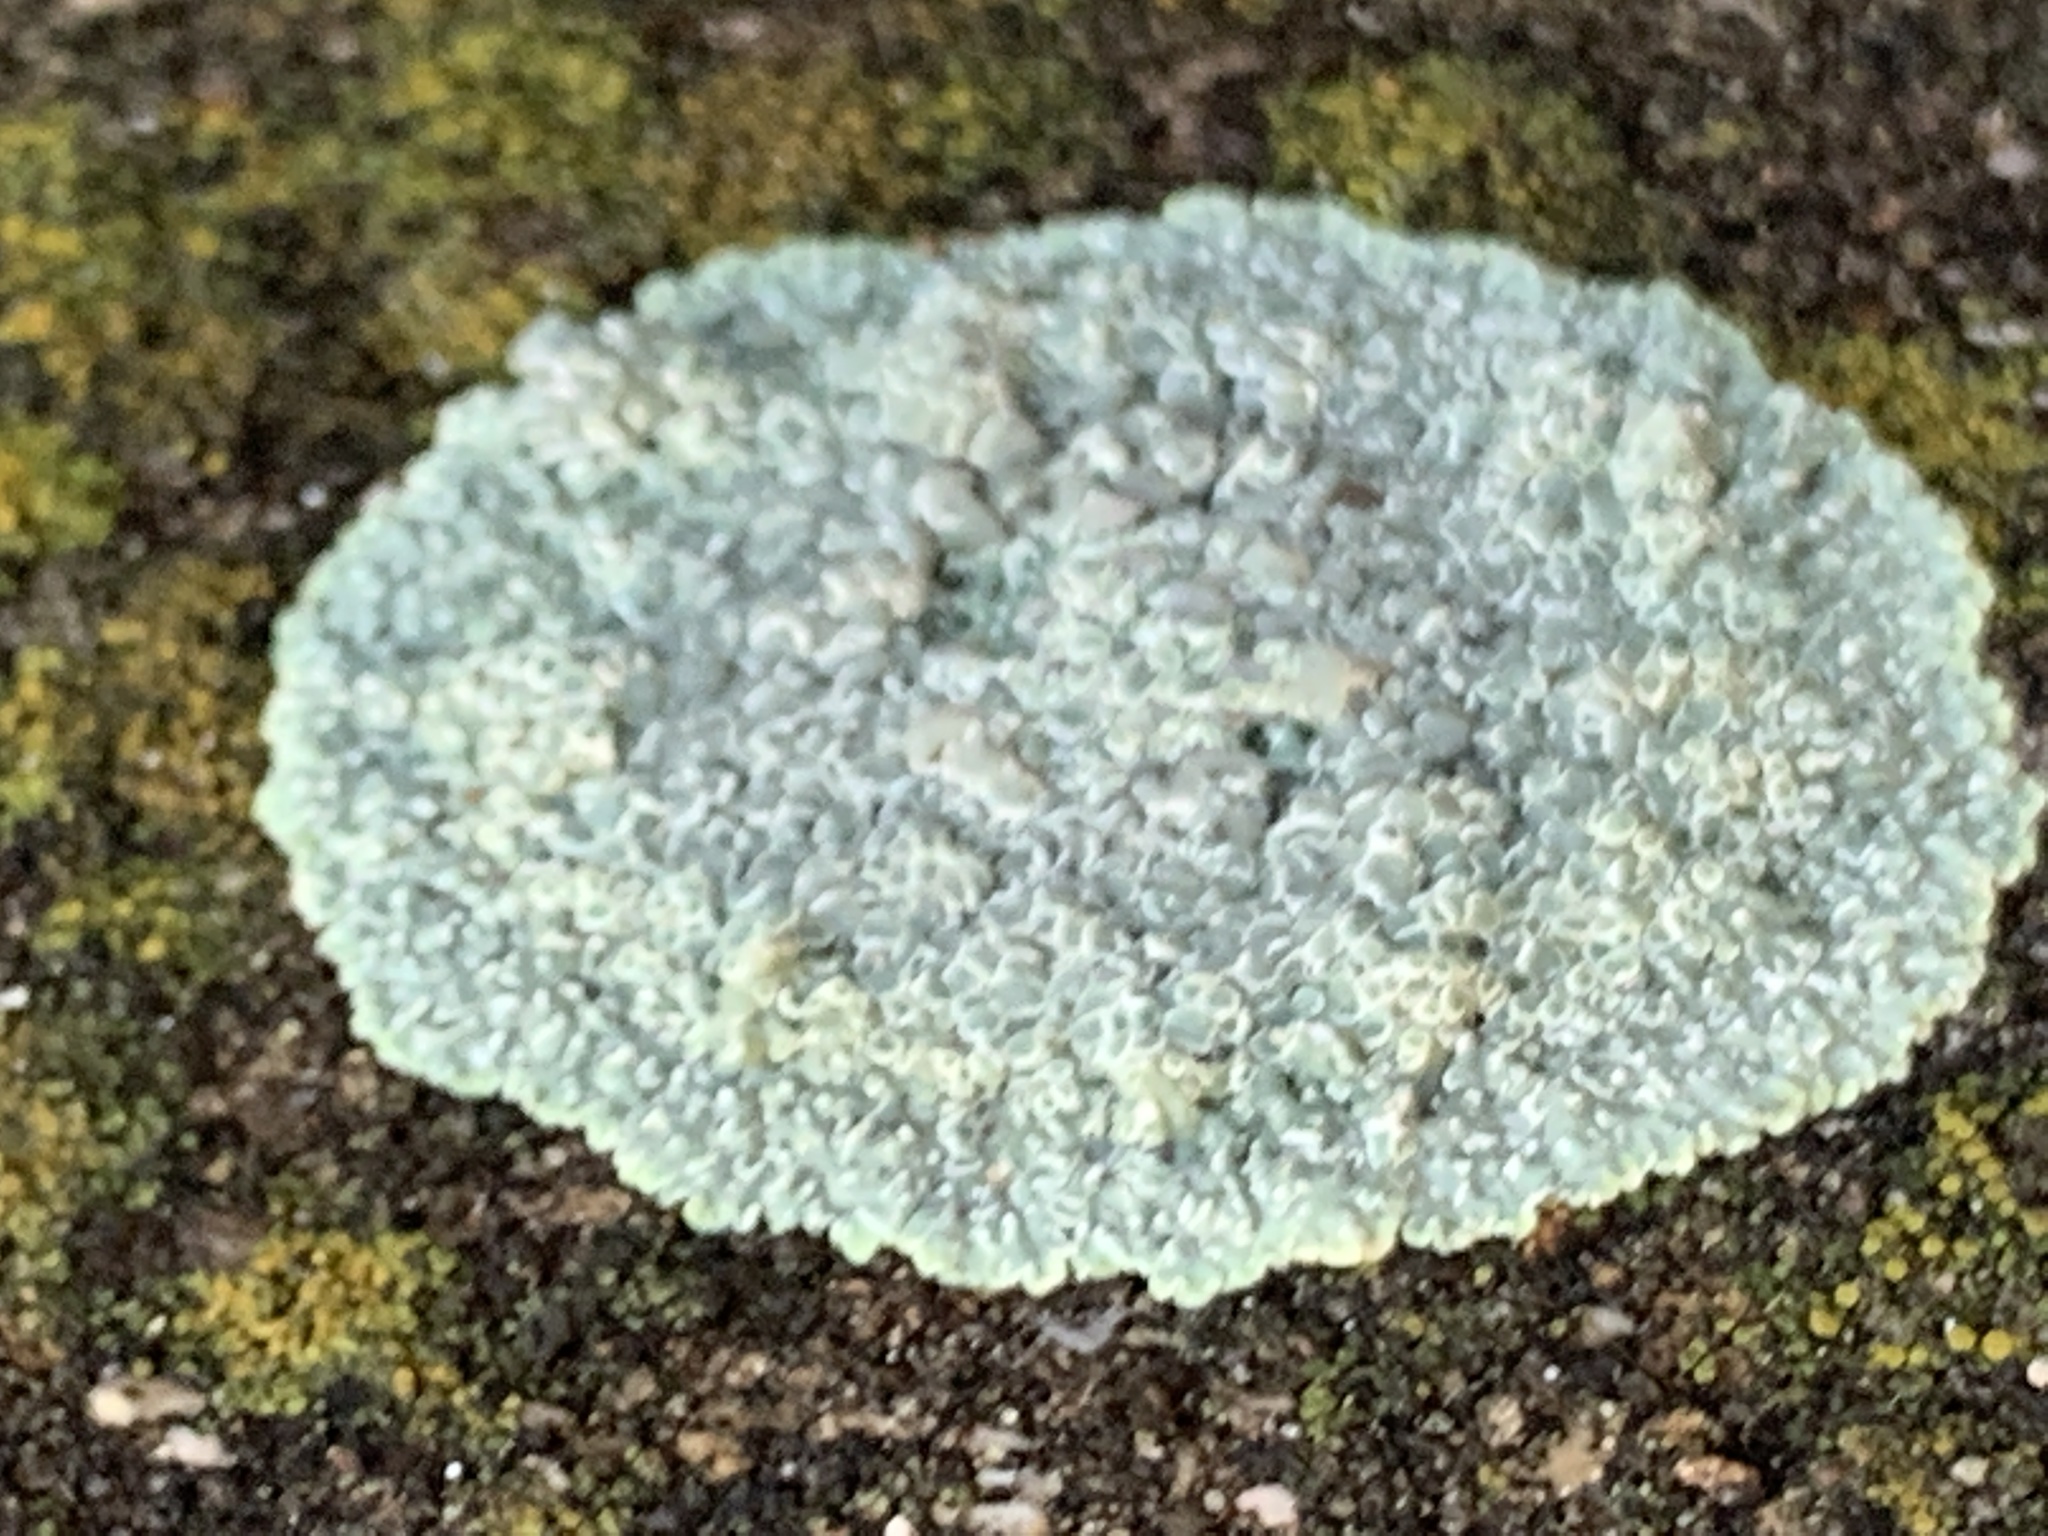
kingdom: Fungi
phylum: Ascomycota
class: Lecanoromycetes
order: Lecanorales
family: Lecanoraceae
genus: Protoparmeliopsis
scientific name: Protoparmeliopsis muralis
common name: Stonewall rim lichen
